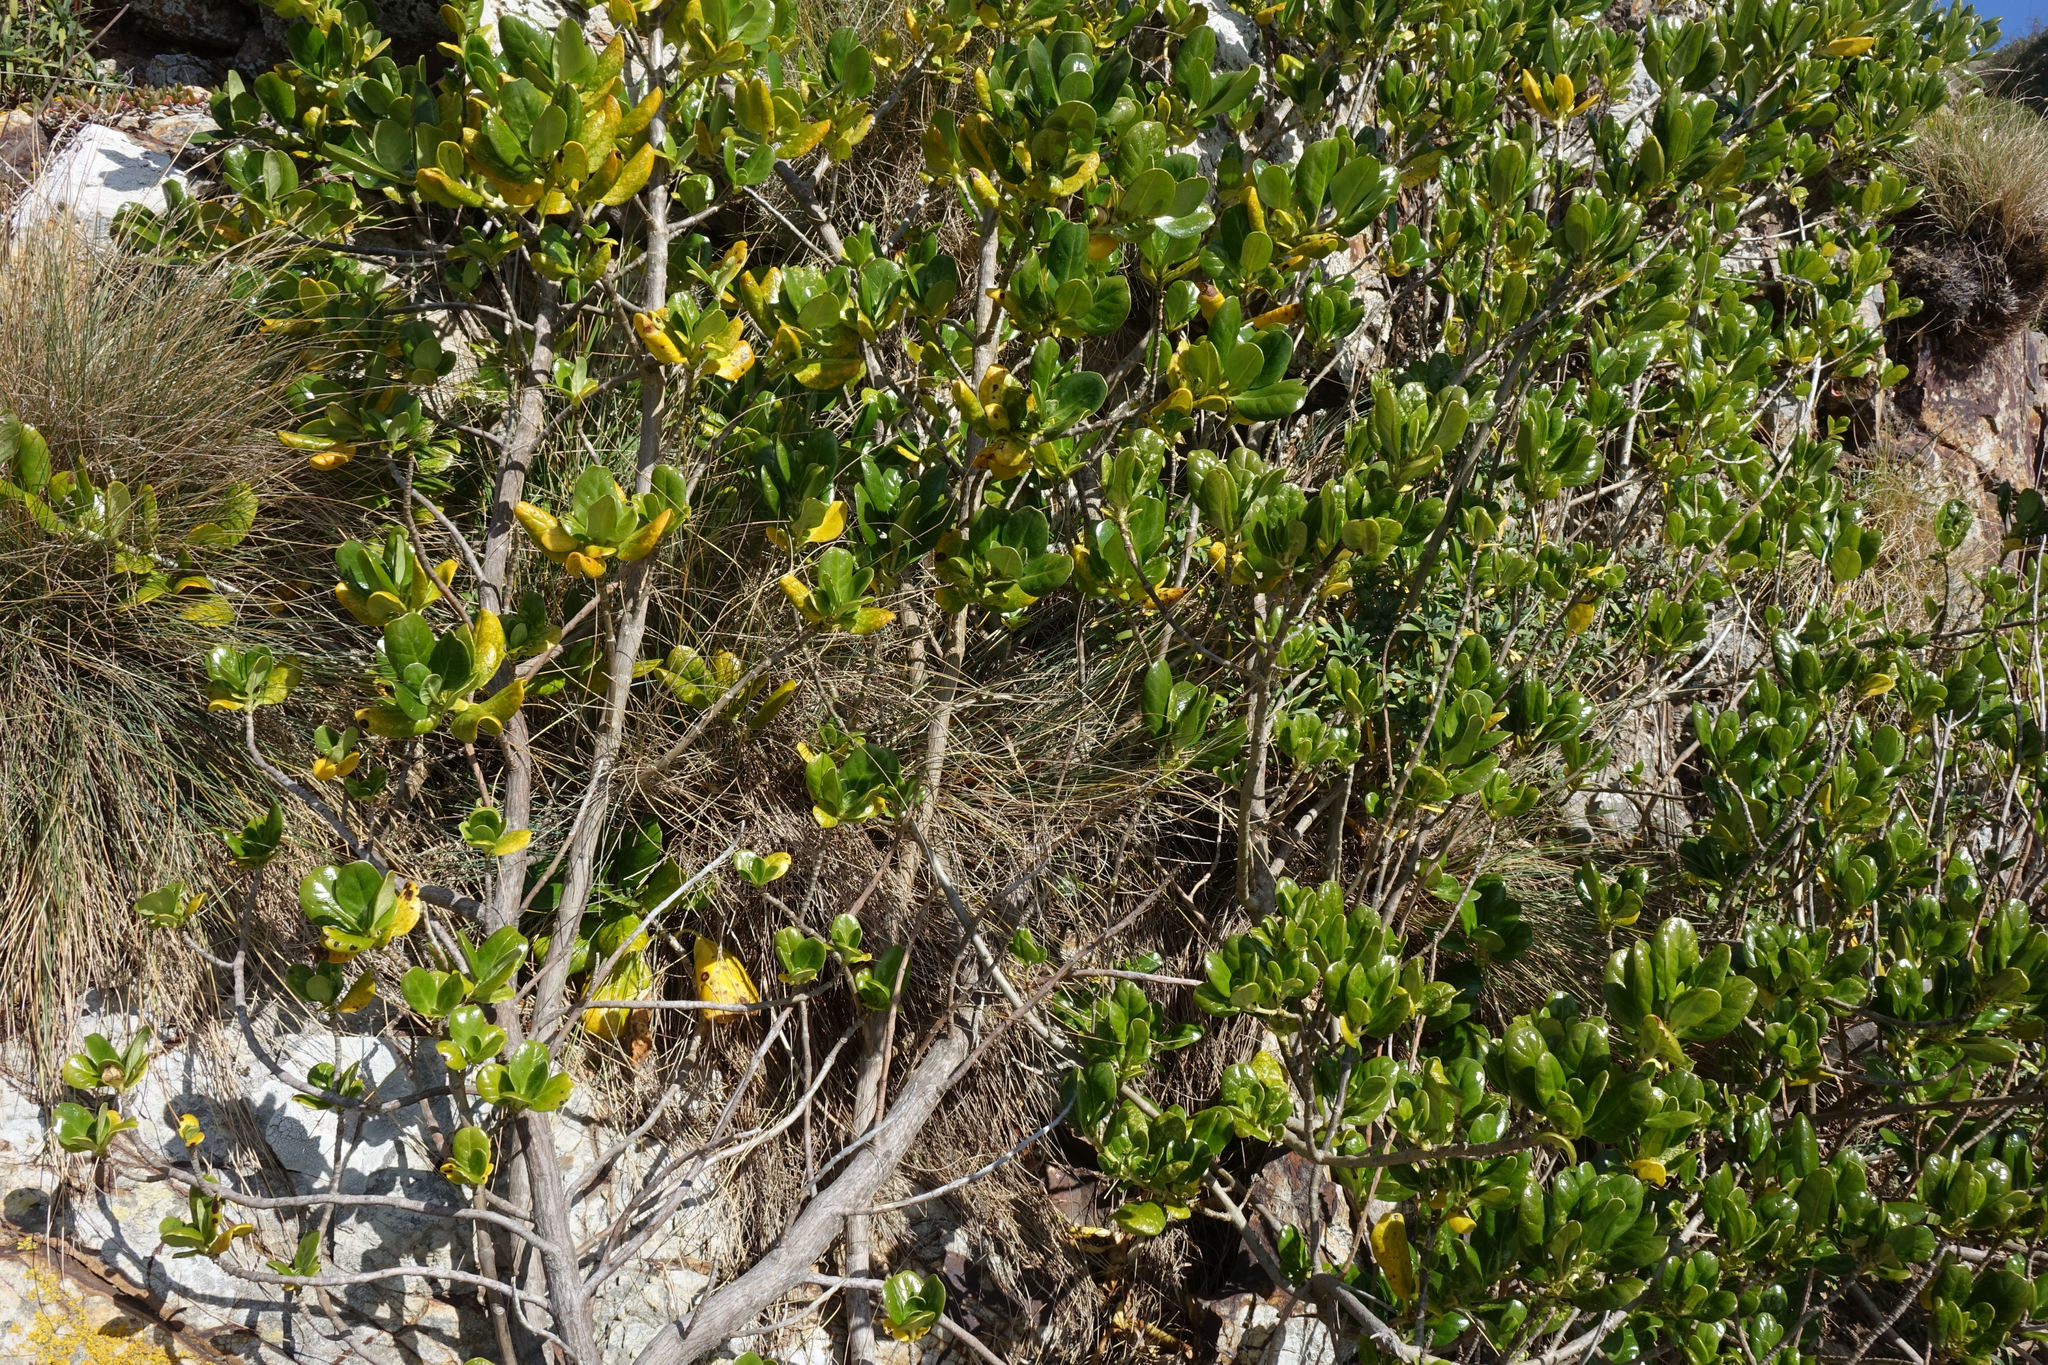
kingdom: Plantae
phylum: Tracheophyta
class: Magnoliopsida
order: Gentianales
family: Rubiaceae
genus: Coprosma
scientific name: Coprosma repens
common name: Tree bedstraw
